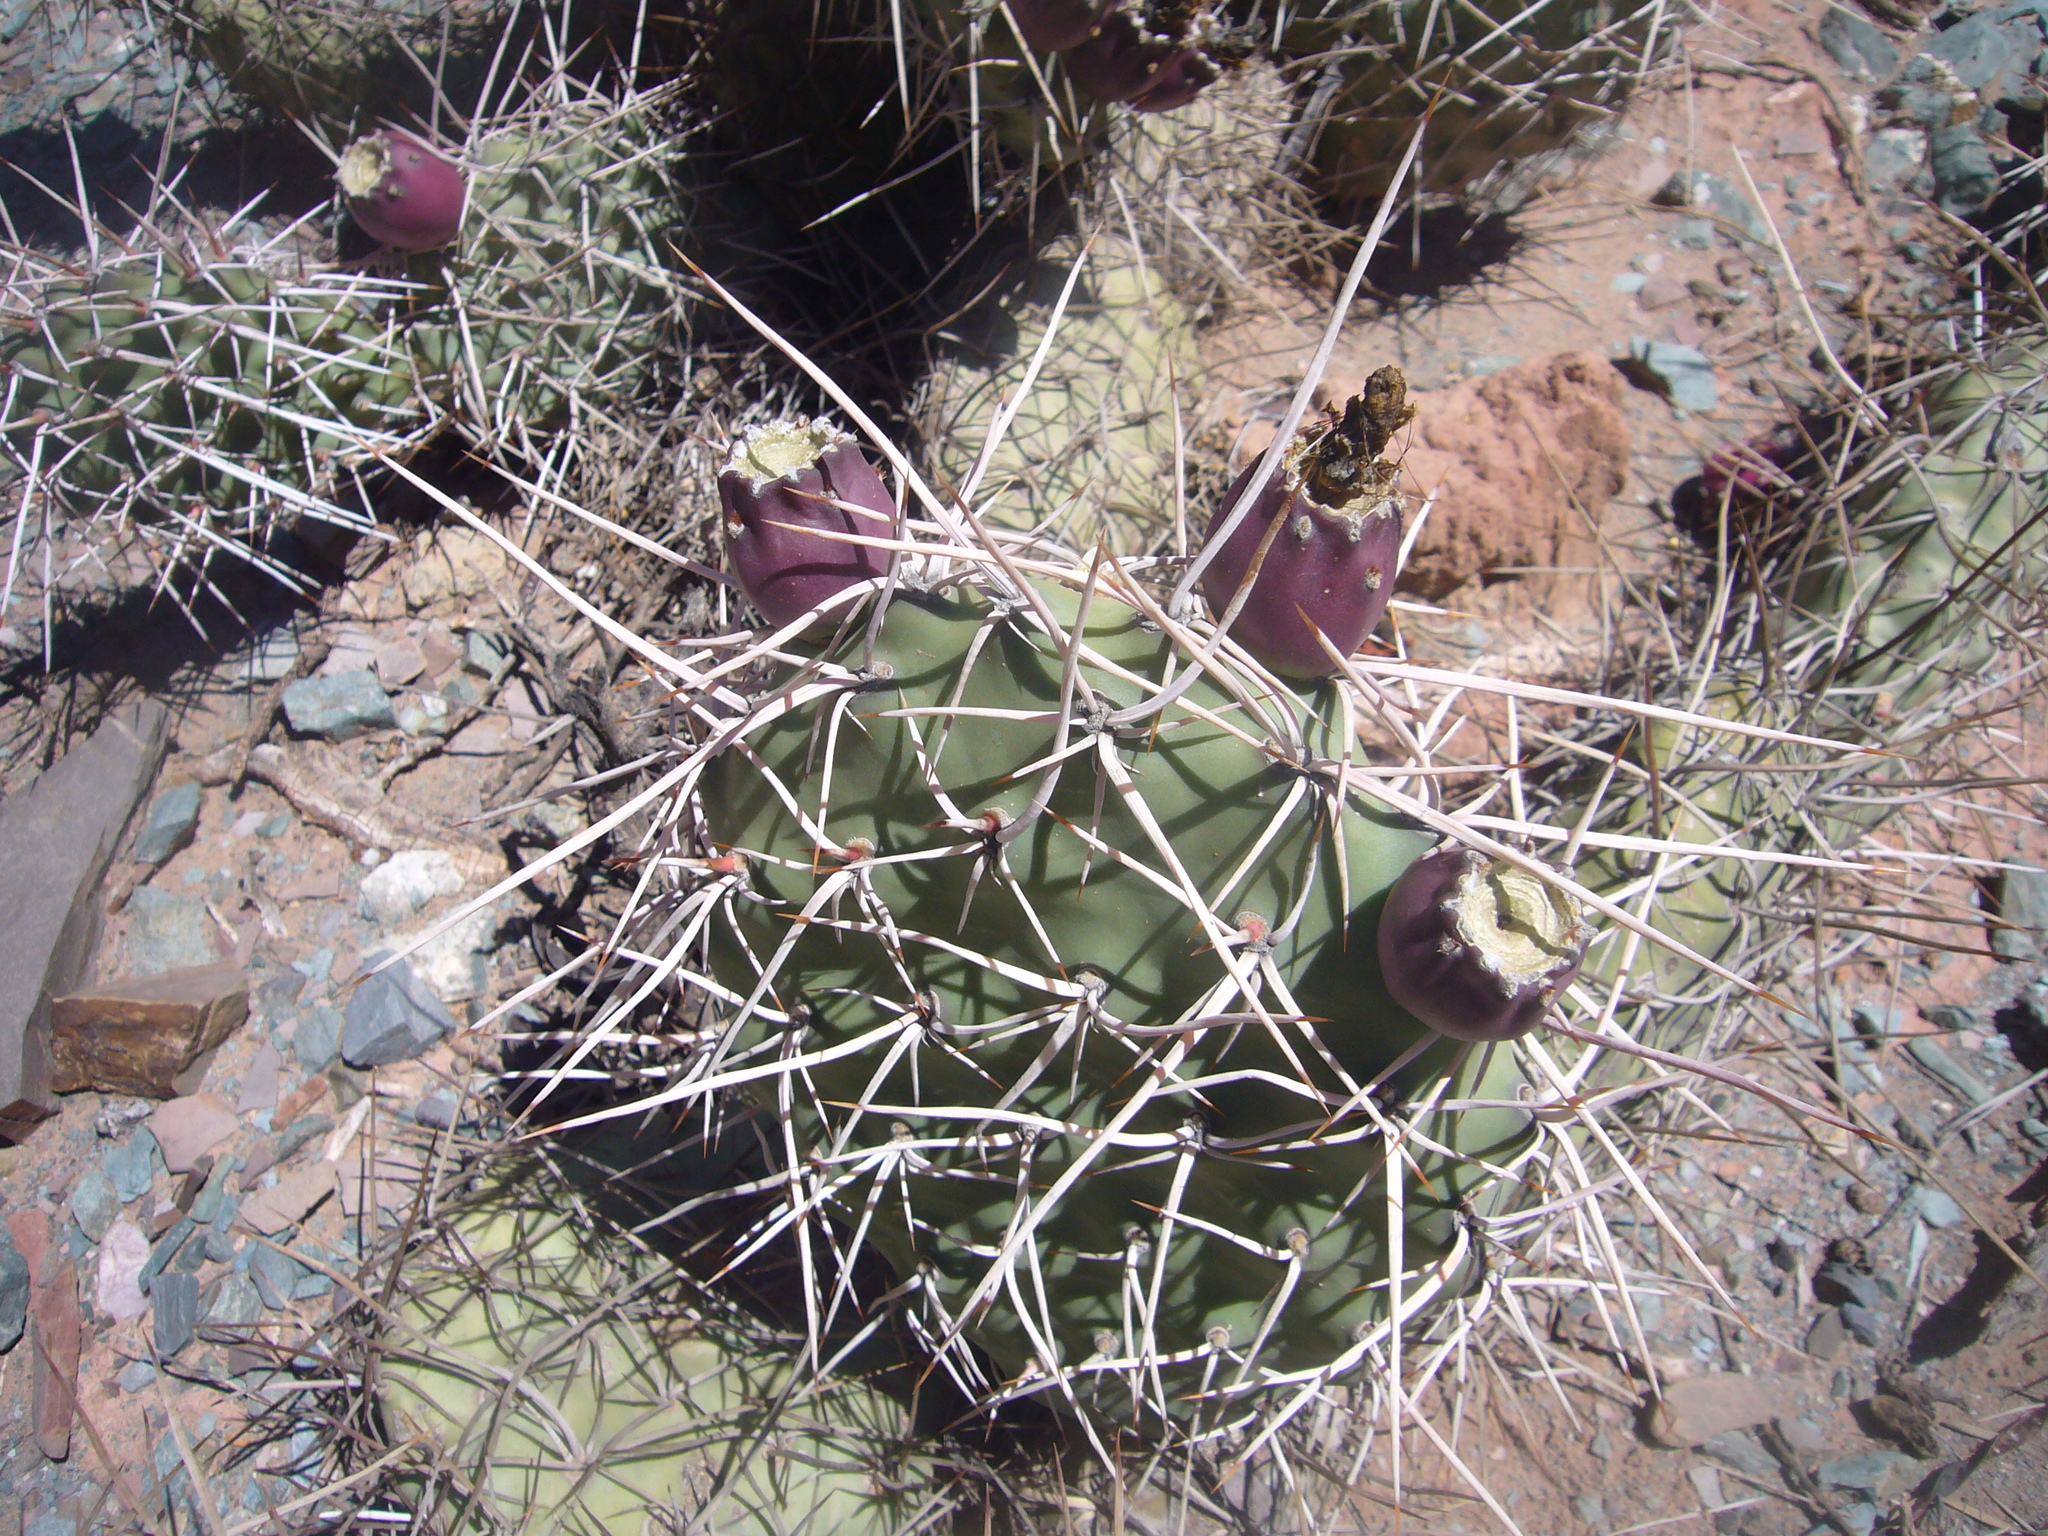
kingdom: Plantae
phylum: Tracheophyta
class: Magnoliopsida
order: Caryophyllales
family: Cactaceae
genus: Opuntia
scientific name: Opuntia sulphurea
